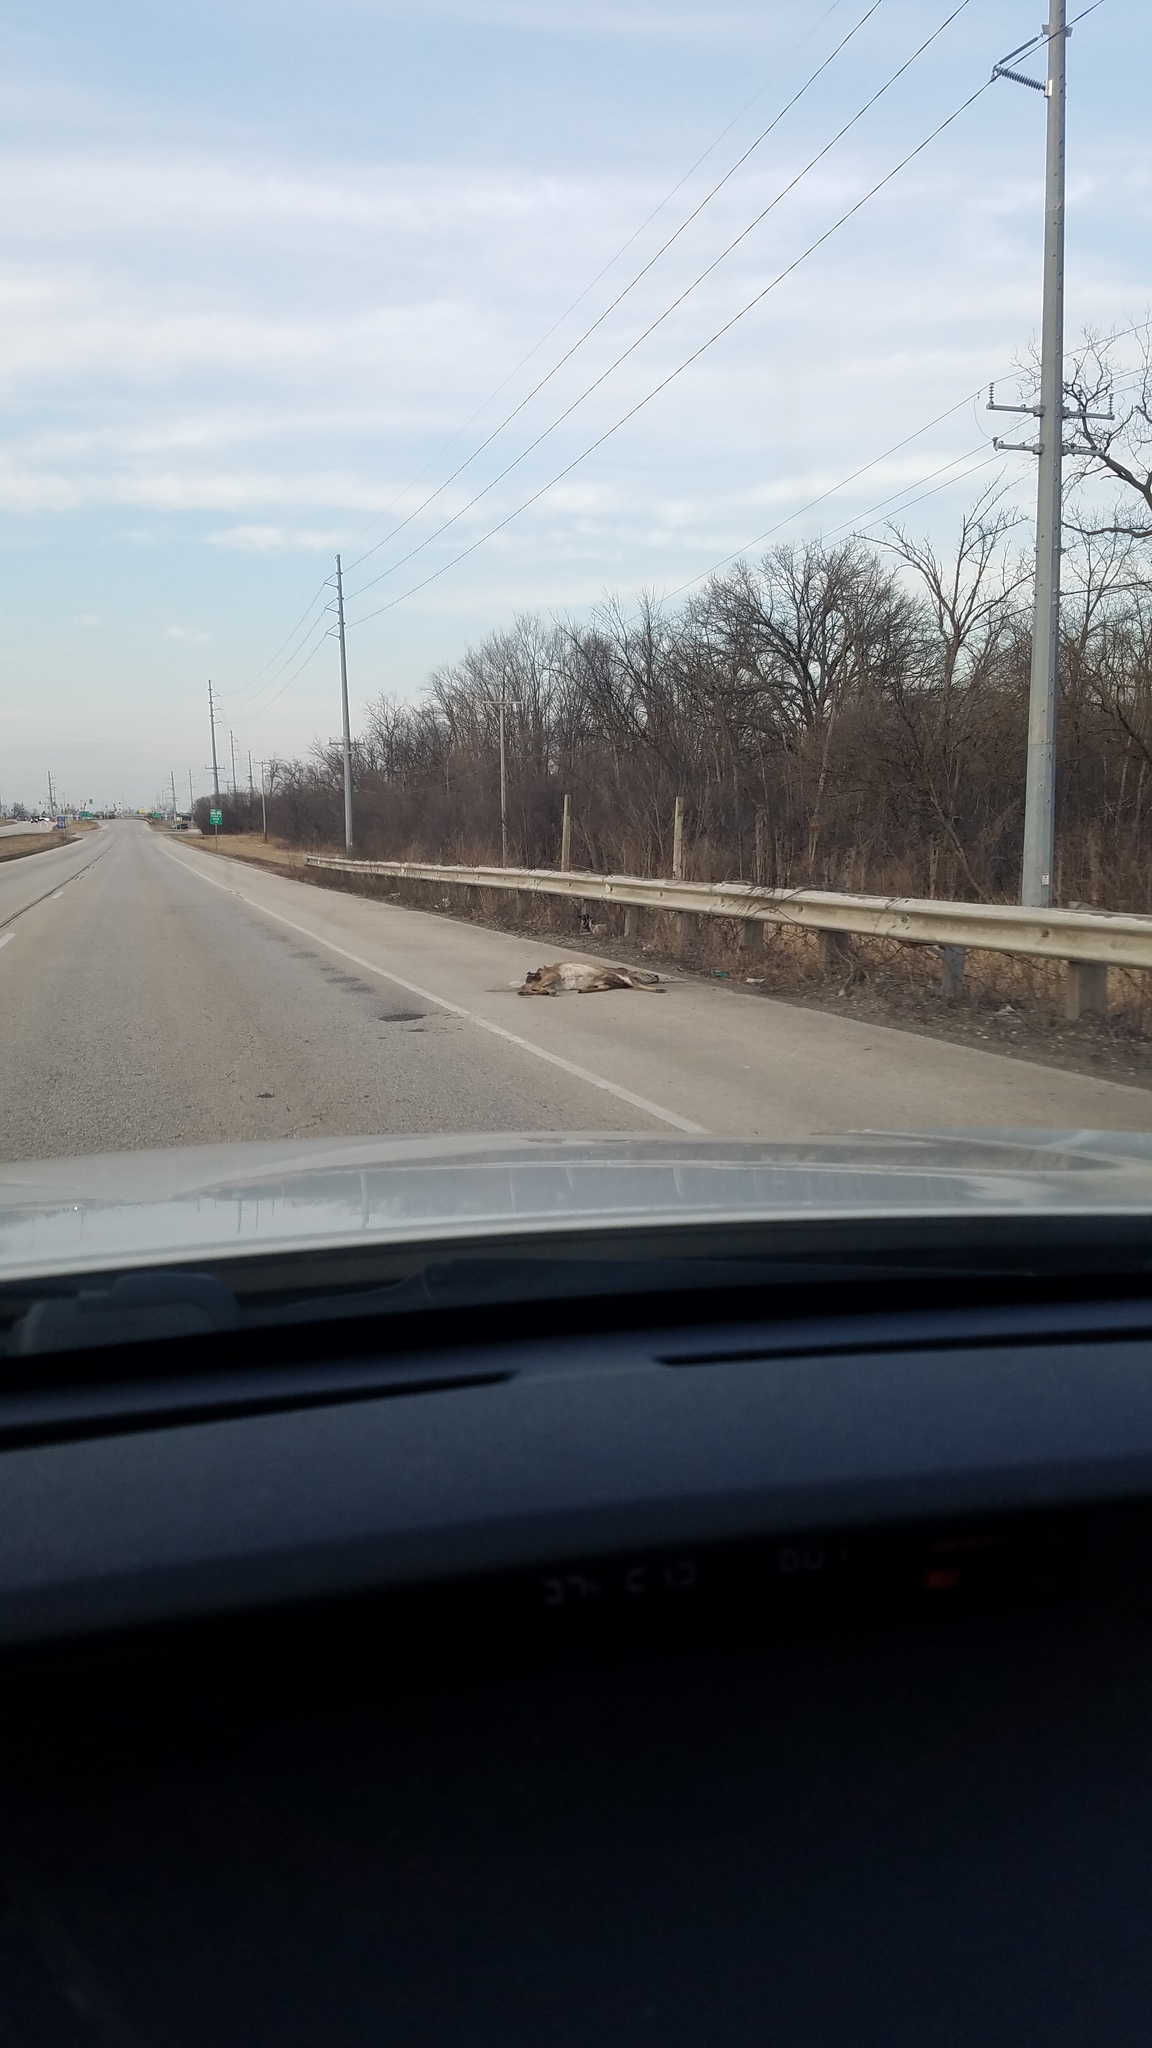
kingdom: Animalia
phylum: Chordata
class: Mammalia
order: Artiodactyla
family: Cervidae
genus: Odocoileus
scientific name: Odocoileus virginianus
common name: White-tailed deer
